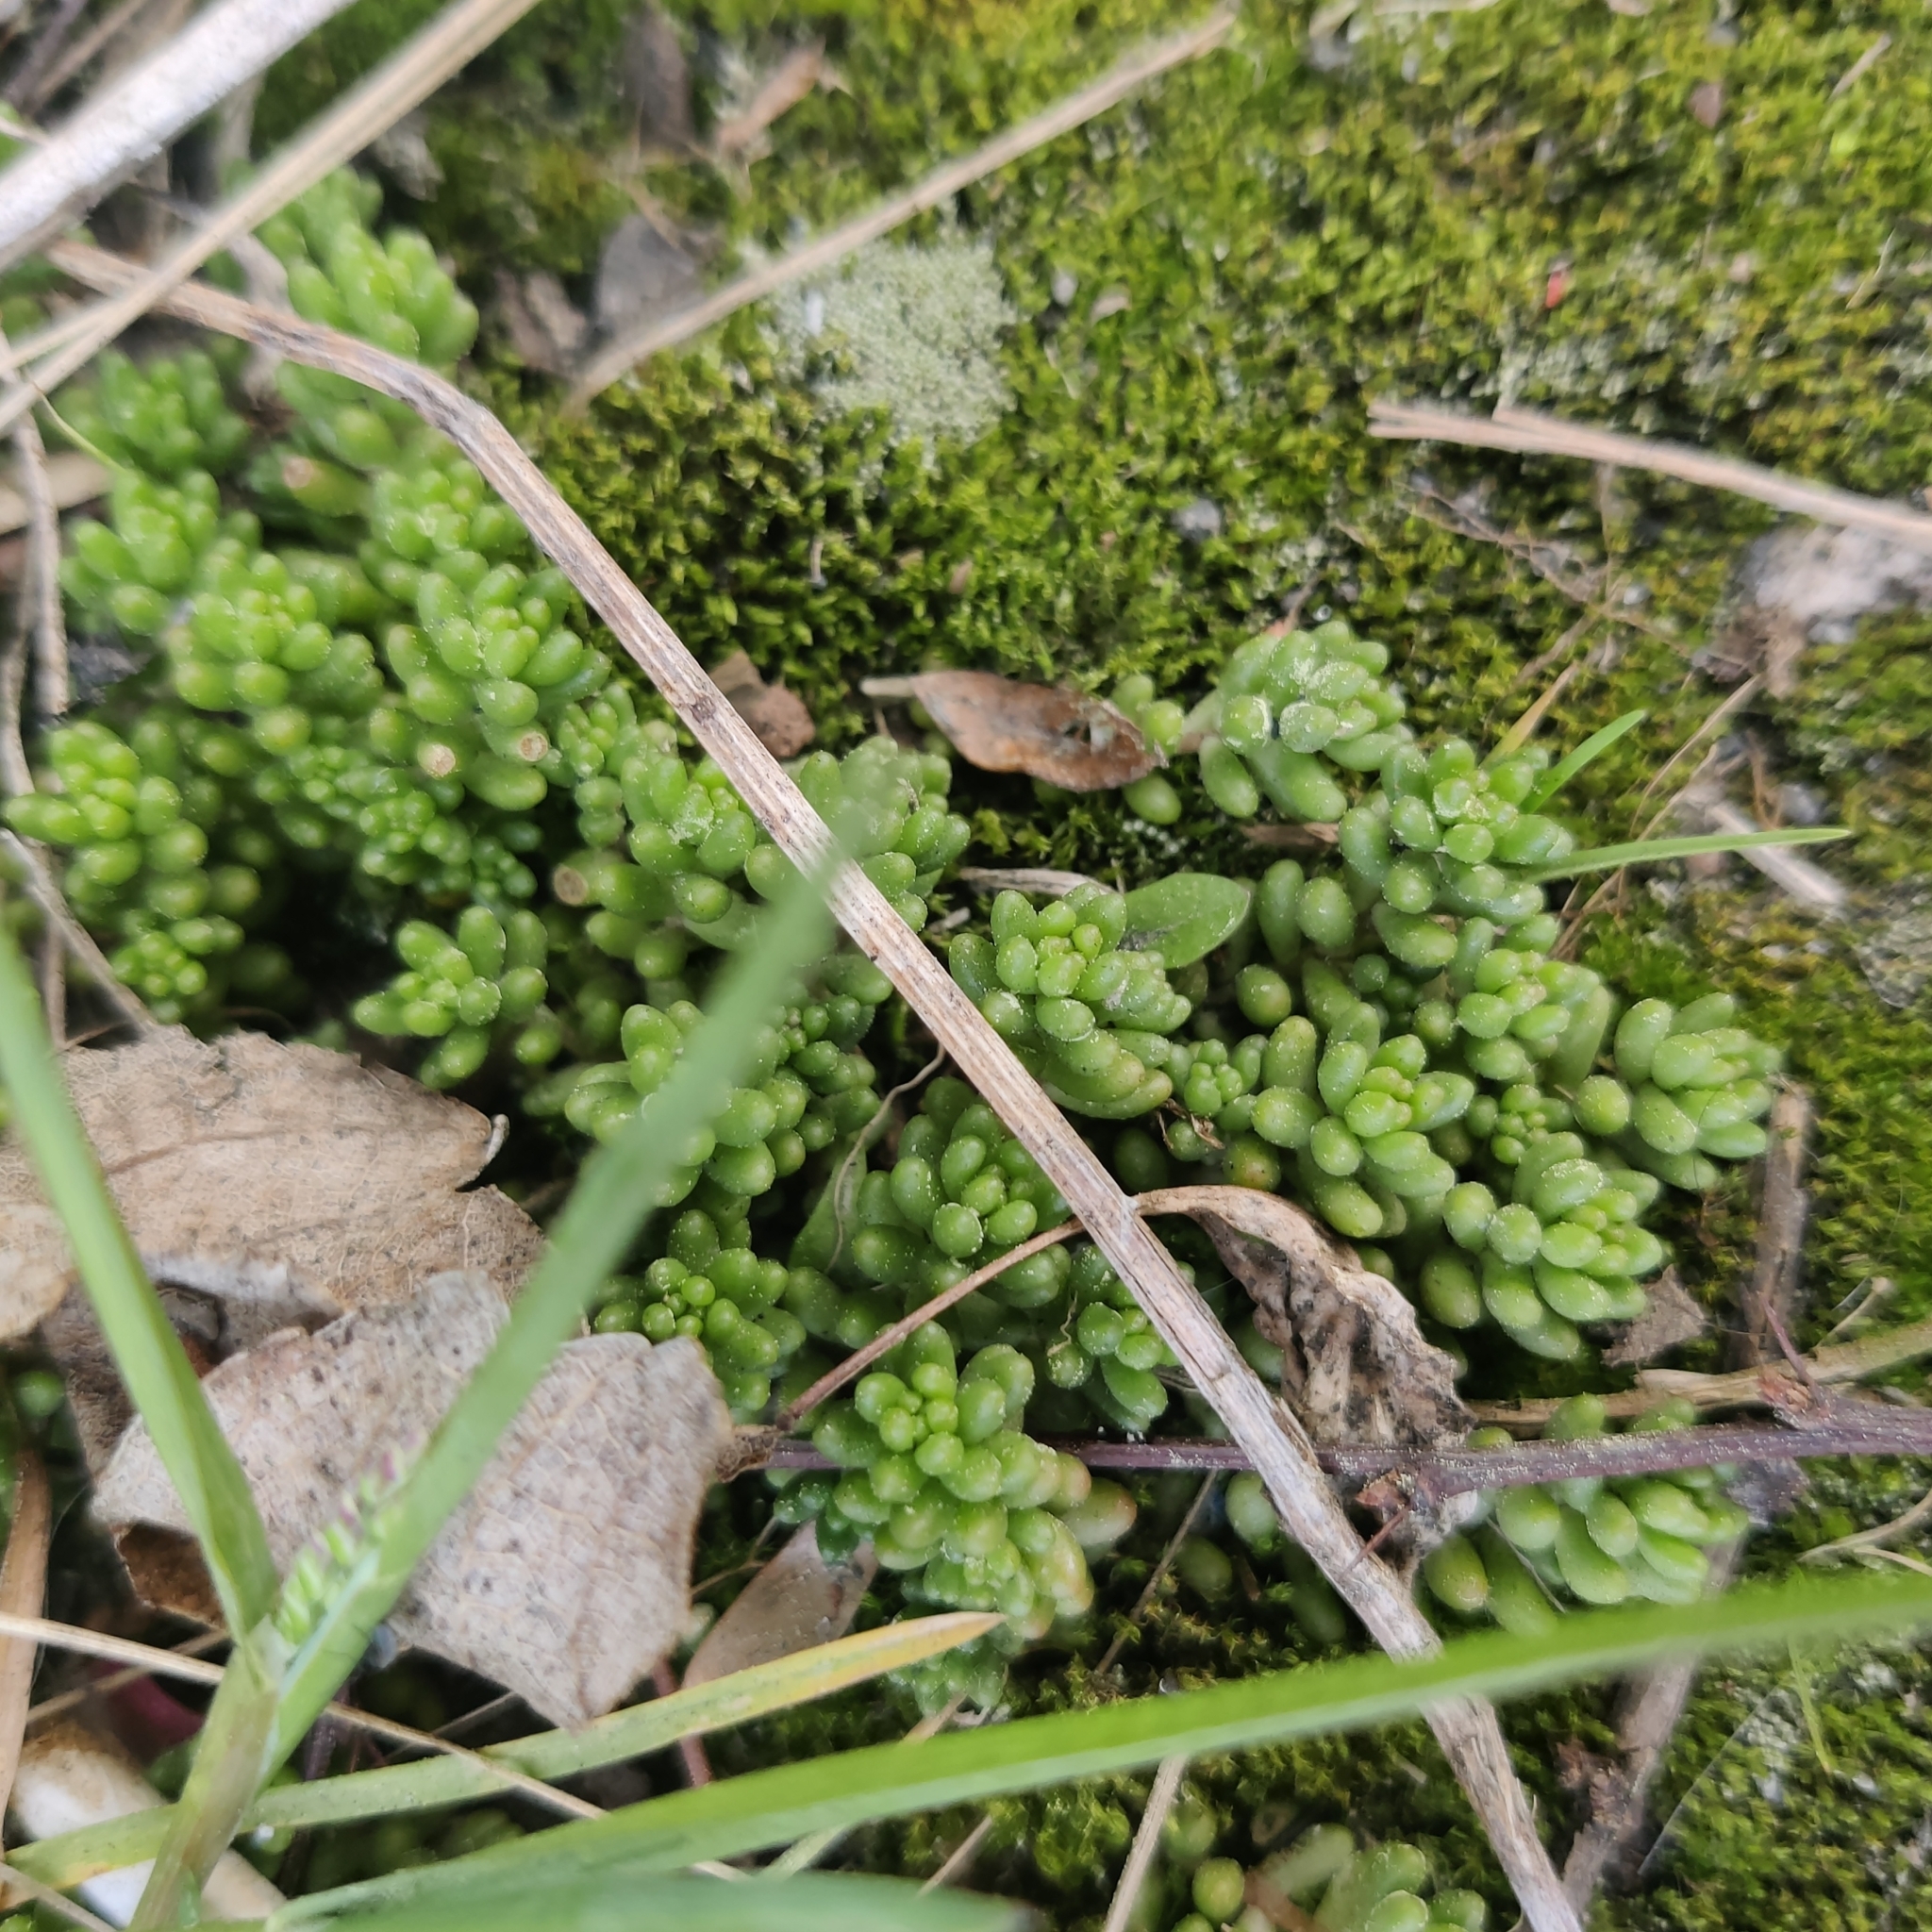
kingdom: Plantae
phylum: Tracheophyta
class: Magnoliopsida
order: Saxifragales
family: Crassulaceae
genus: Sedum
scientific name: Sedum album
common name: White stonecrop
